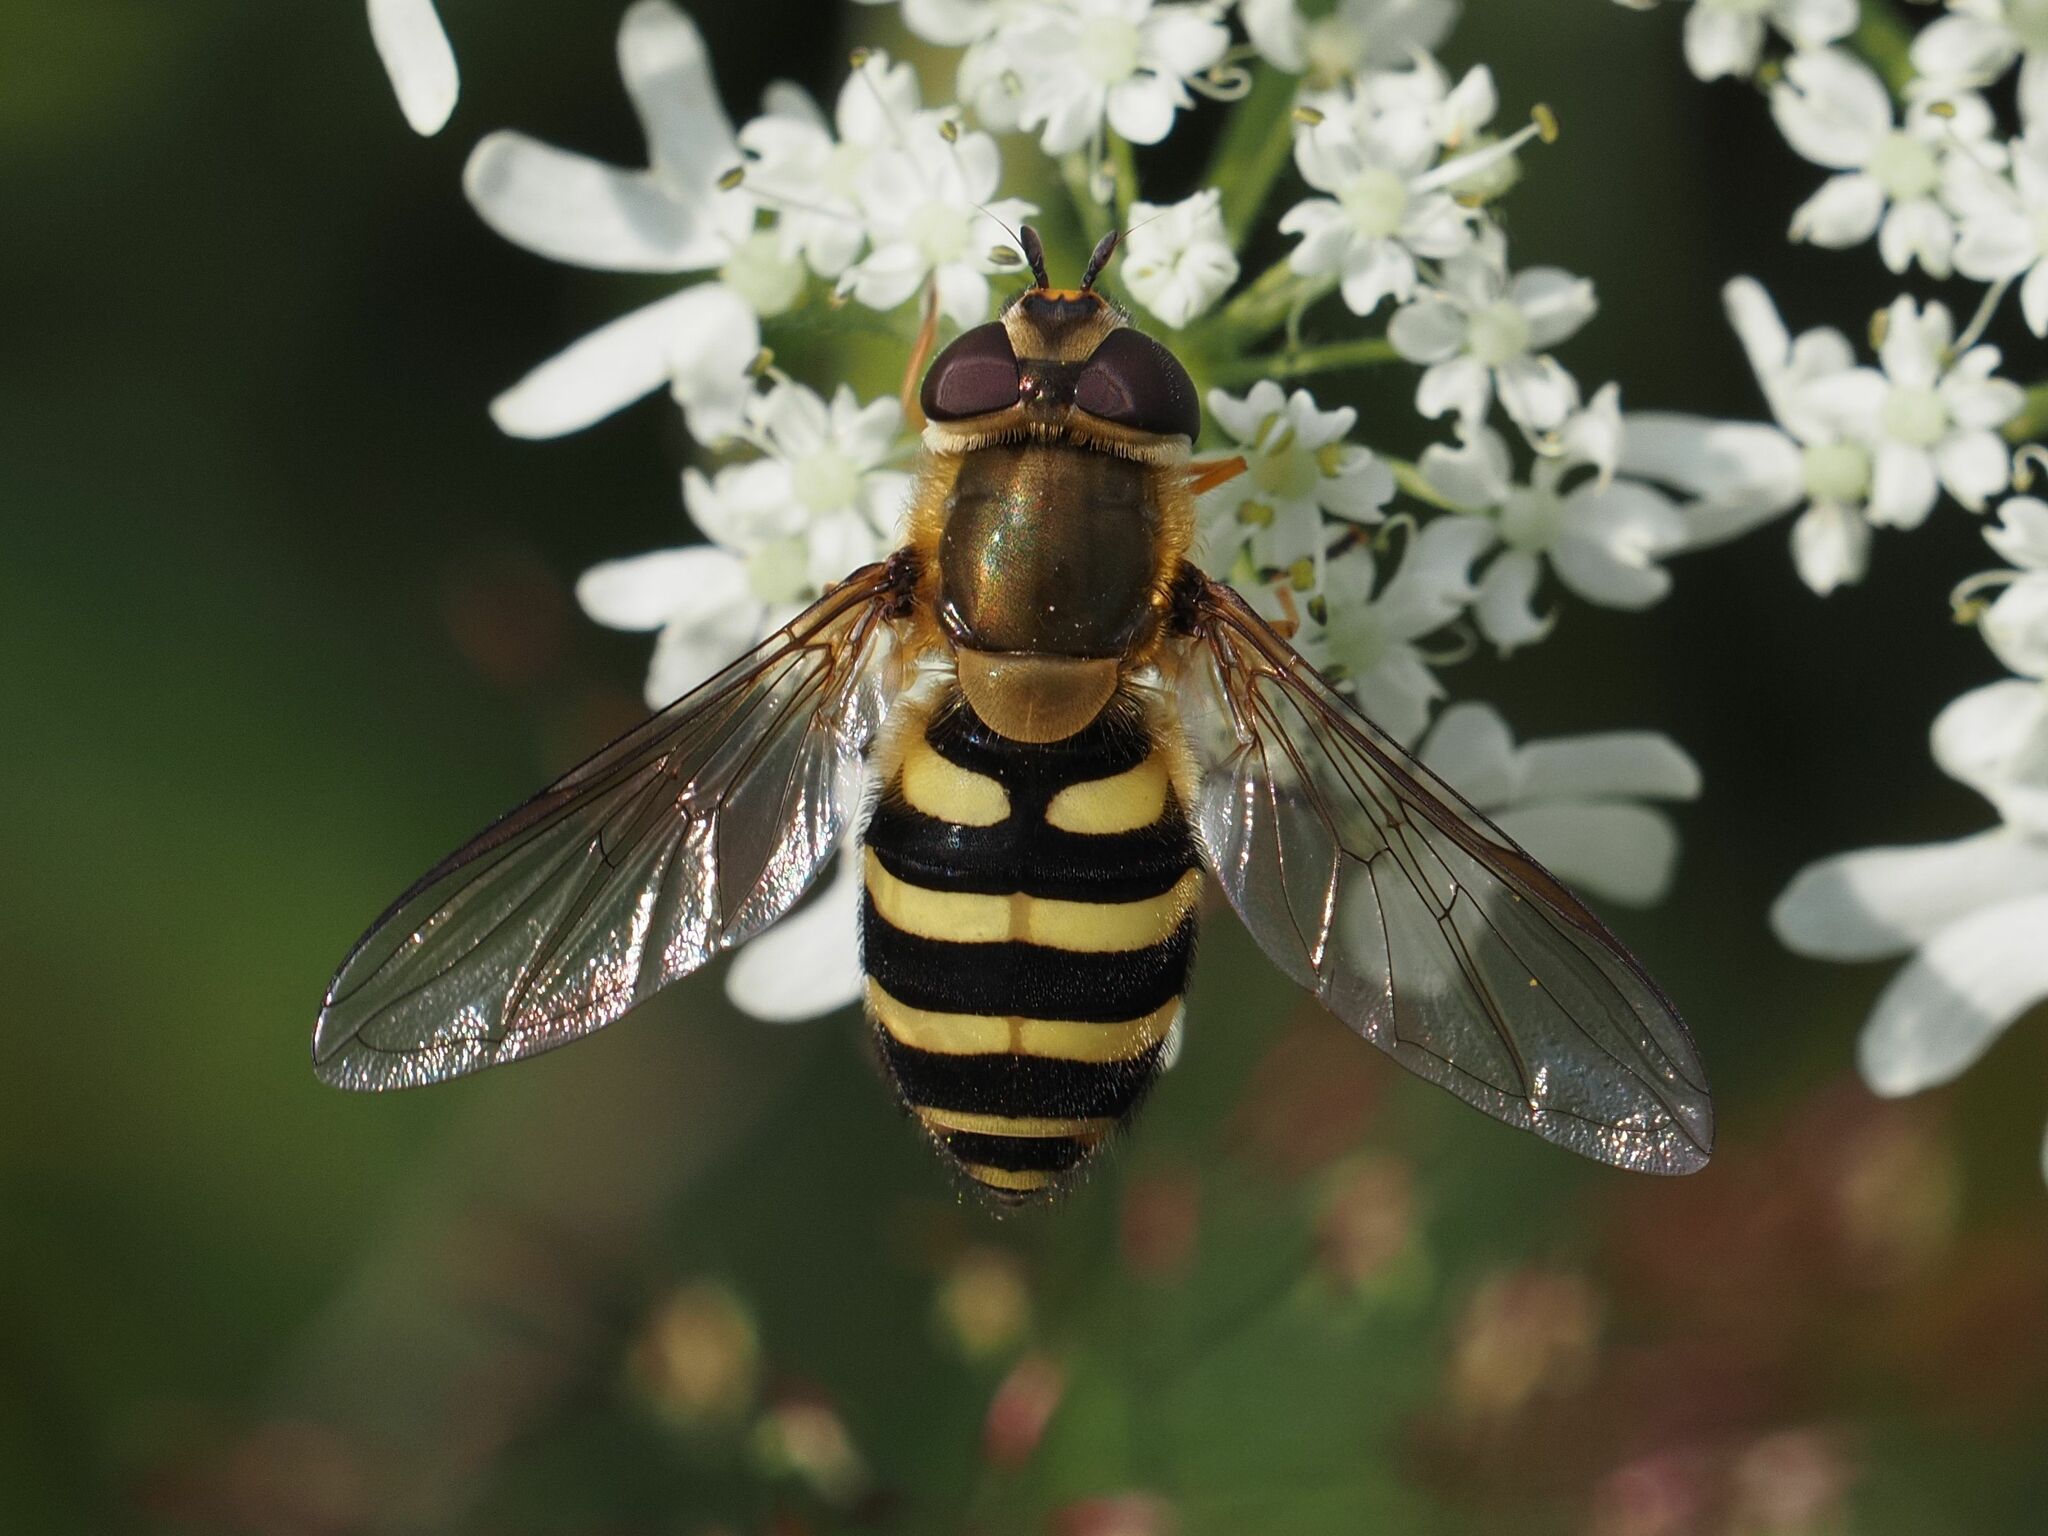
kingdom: Animalia
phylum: Arthropoda
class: Insecta
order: Diptera
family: Syrphidae
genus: Syrphus
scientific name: Syrphus torvus
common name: Hairy-eyed flower fly
